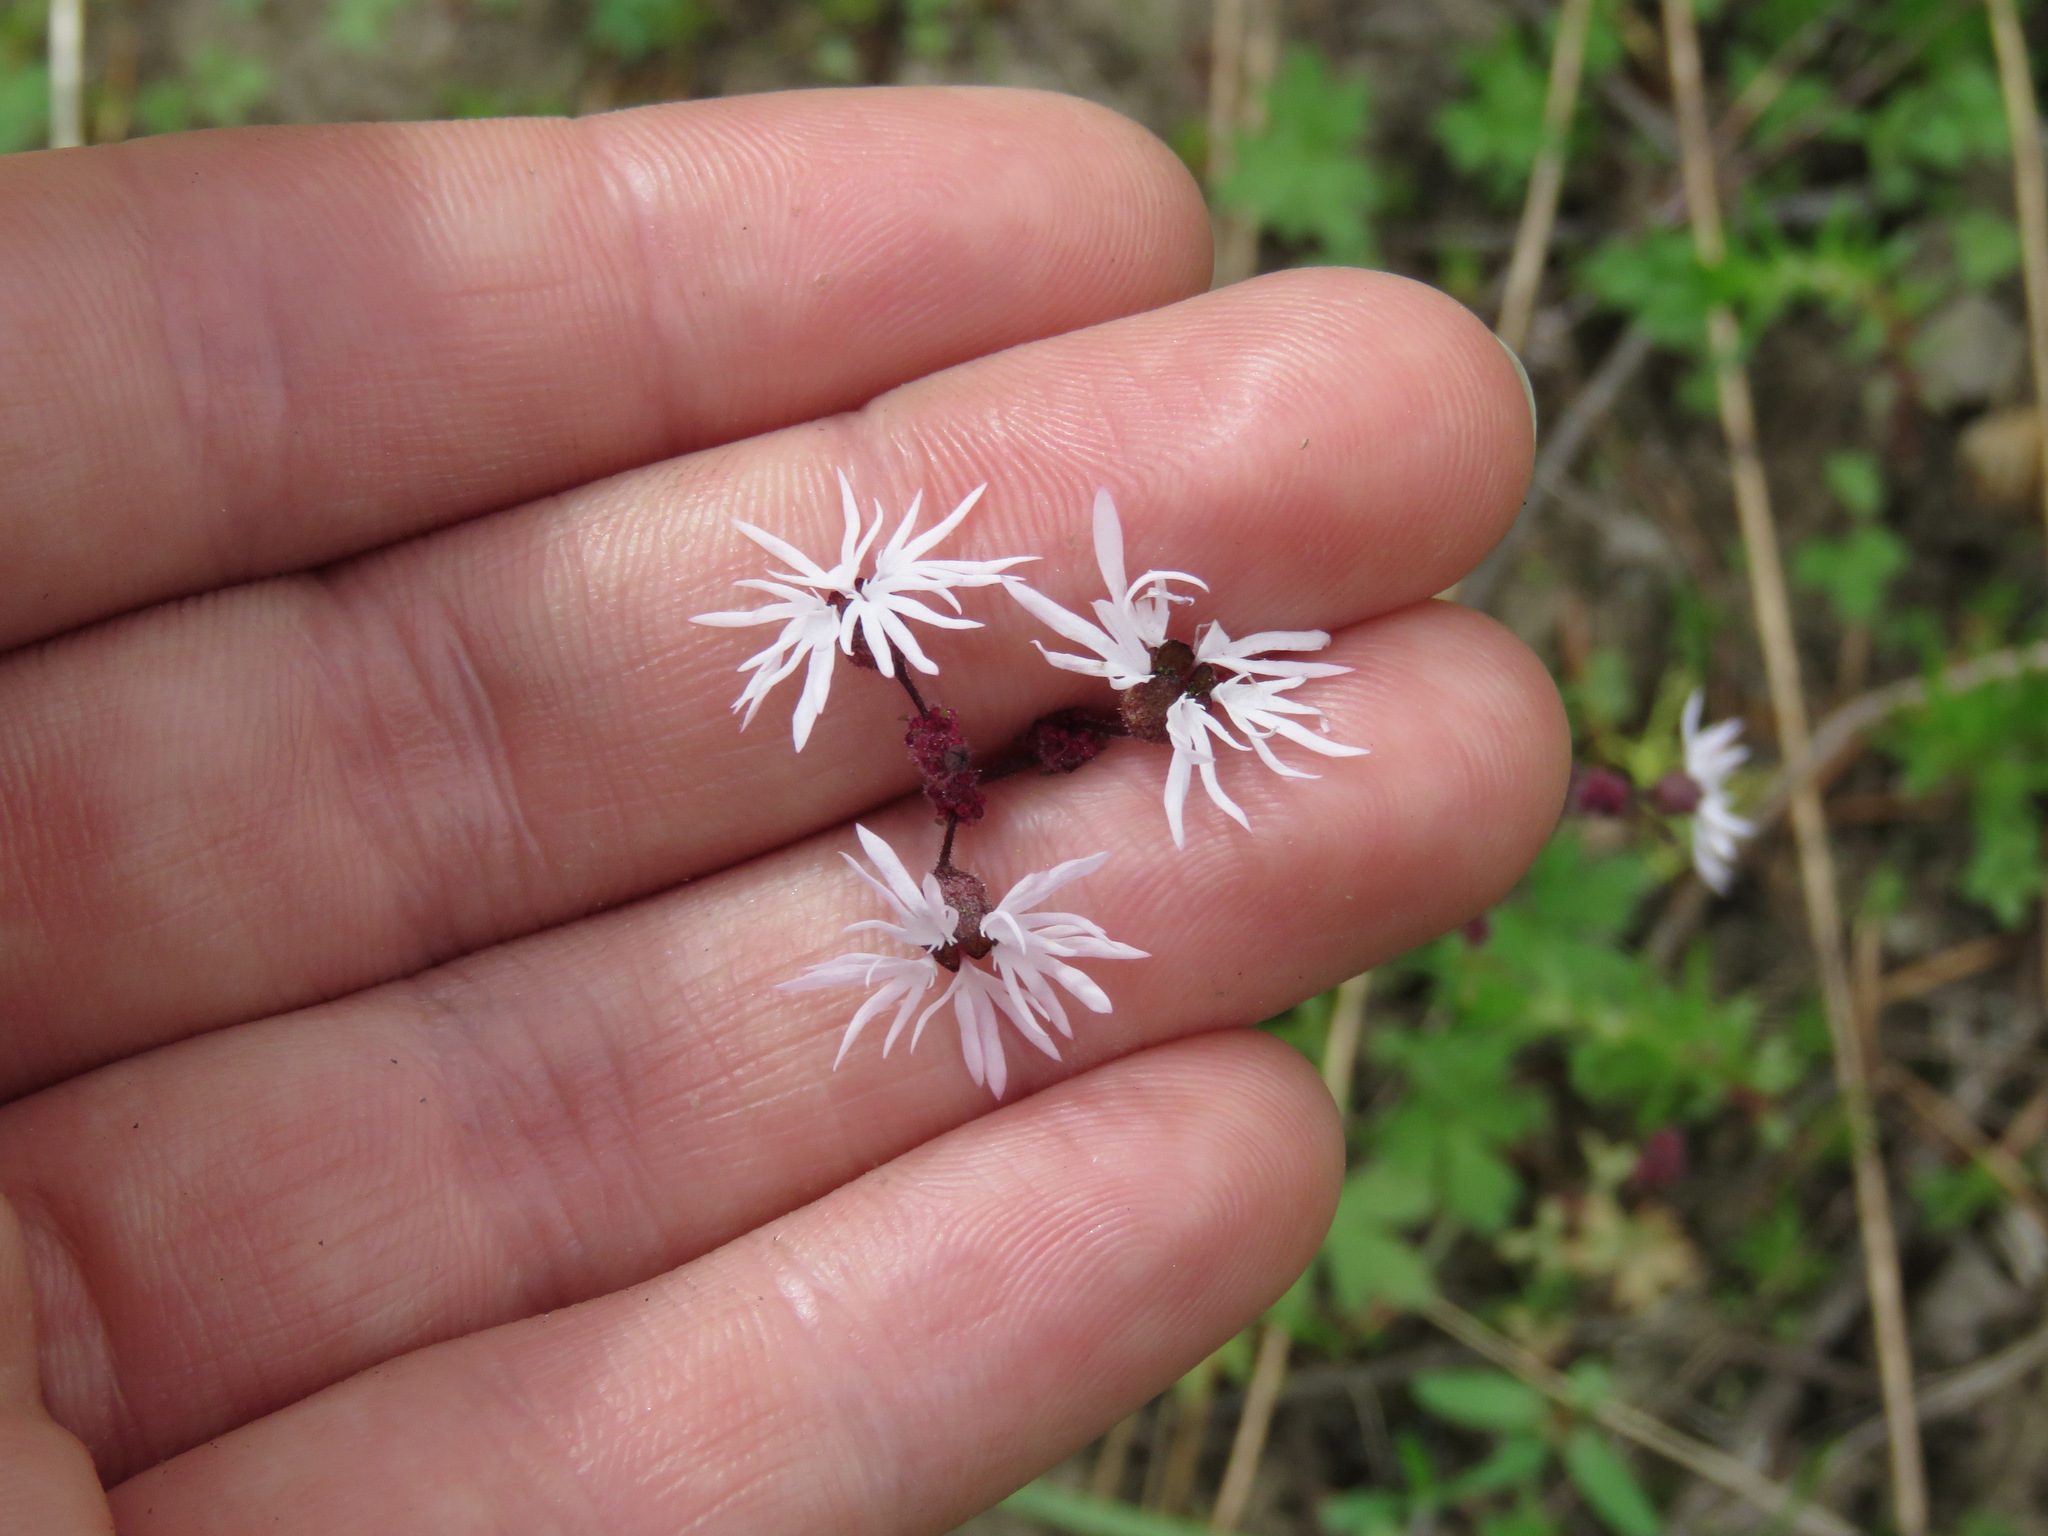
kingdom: Plantae
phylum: Tracheophyta
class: Magnoliopsida
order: Saxifragales
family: Saxifragaceae
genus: Lithophragma
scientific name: Lithophragma glabrum
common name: Bulbous prairie-star
